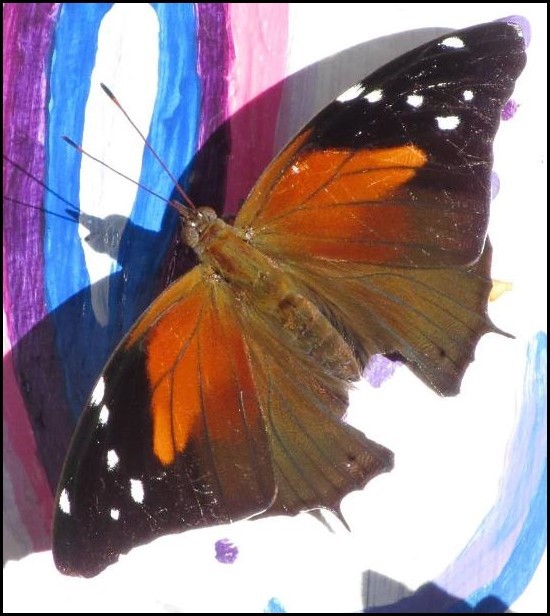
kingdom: Animalia
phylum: Arthropoda
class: Insecta
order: Lepidoptera
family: Nymphalidae
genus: Coea
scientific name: Coea acheronta
